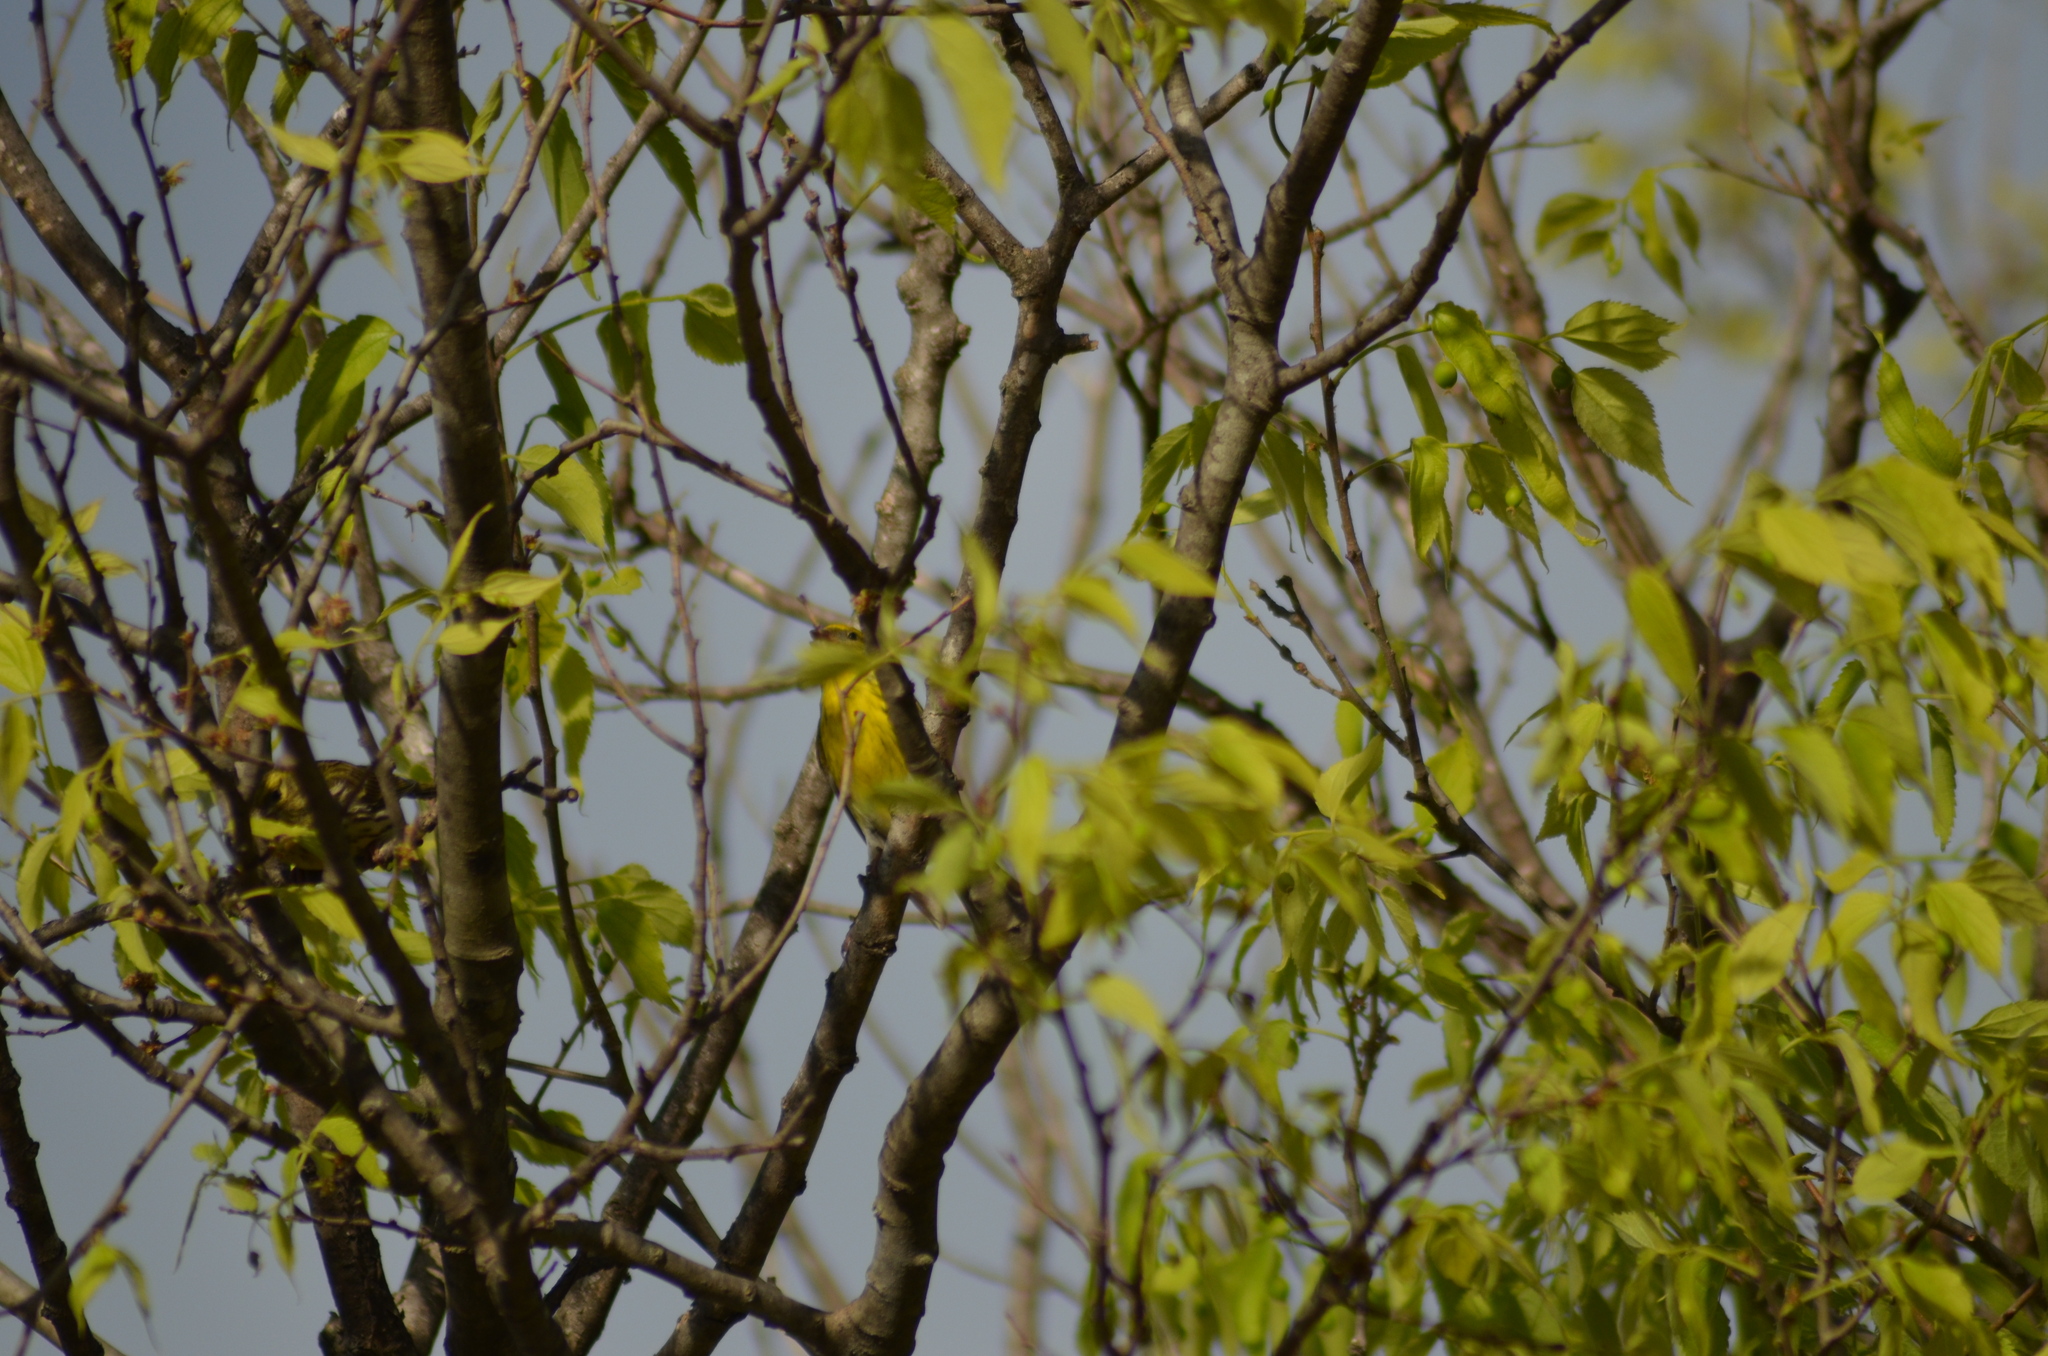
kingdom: Animalia
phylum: Chordata
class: Aves
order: Passeriformes
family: Fringillidae
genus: Serinus
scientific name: Serinus serinus
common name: European serin
